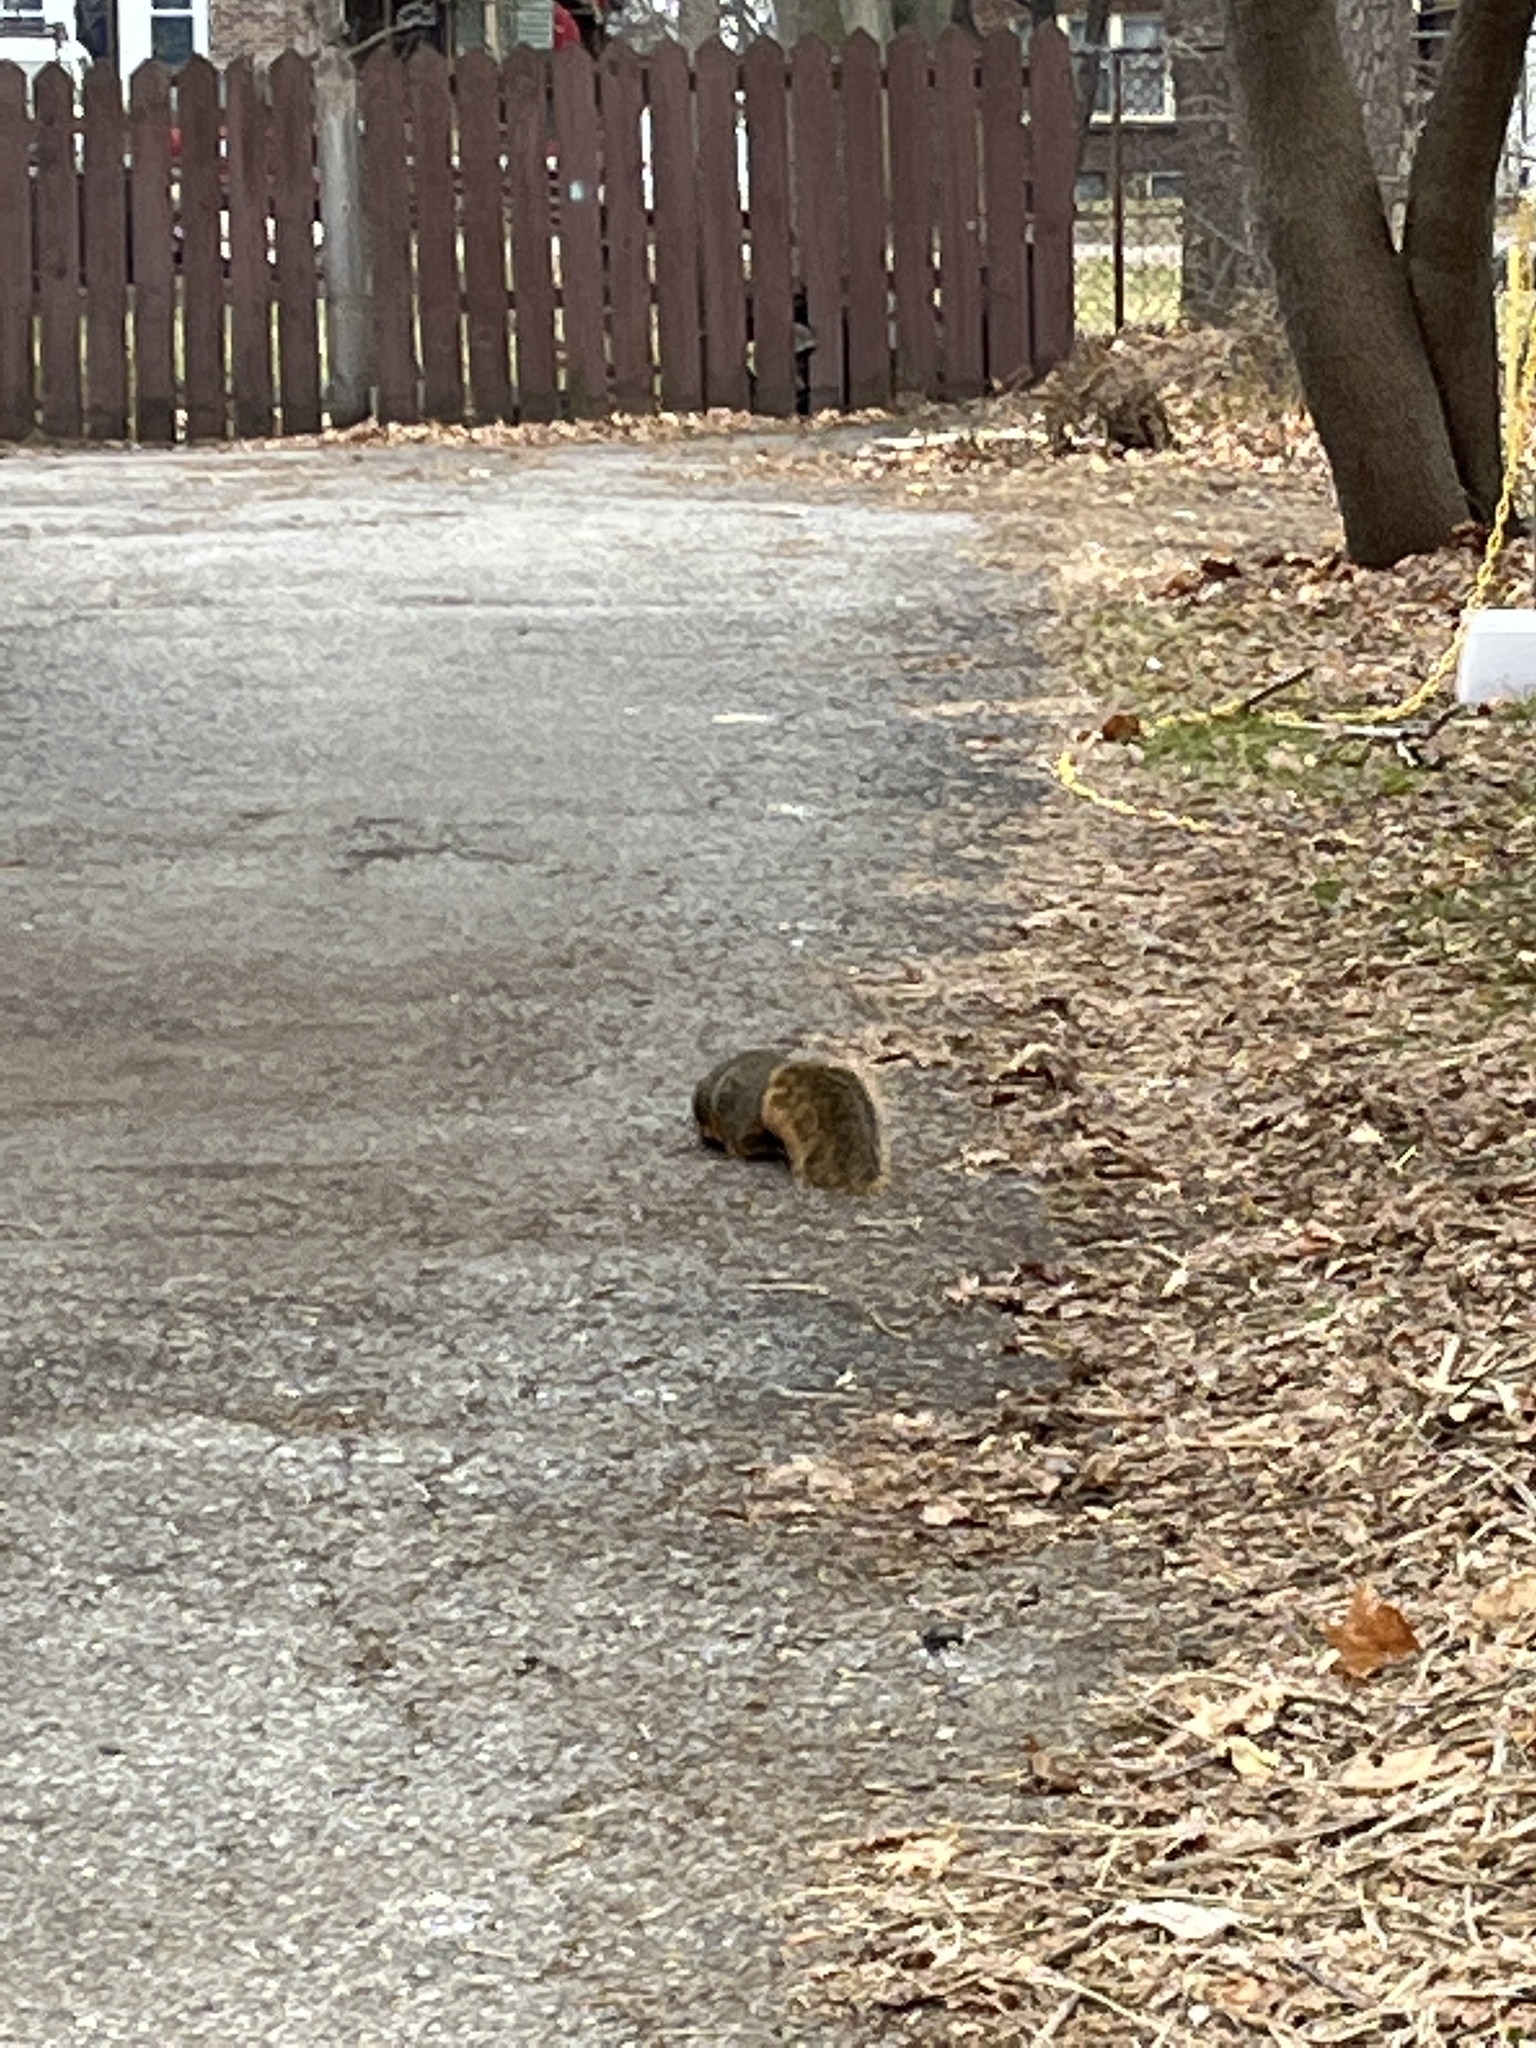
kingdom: Animalia
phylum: Chordata
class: Mammalia
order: Rodentia
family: Sciuridae
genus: Sciurus
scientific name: Sciurus niger
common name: Fox squirrel
